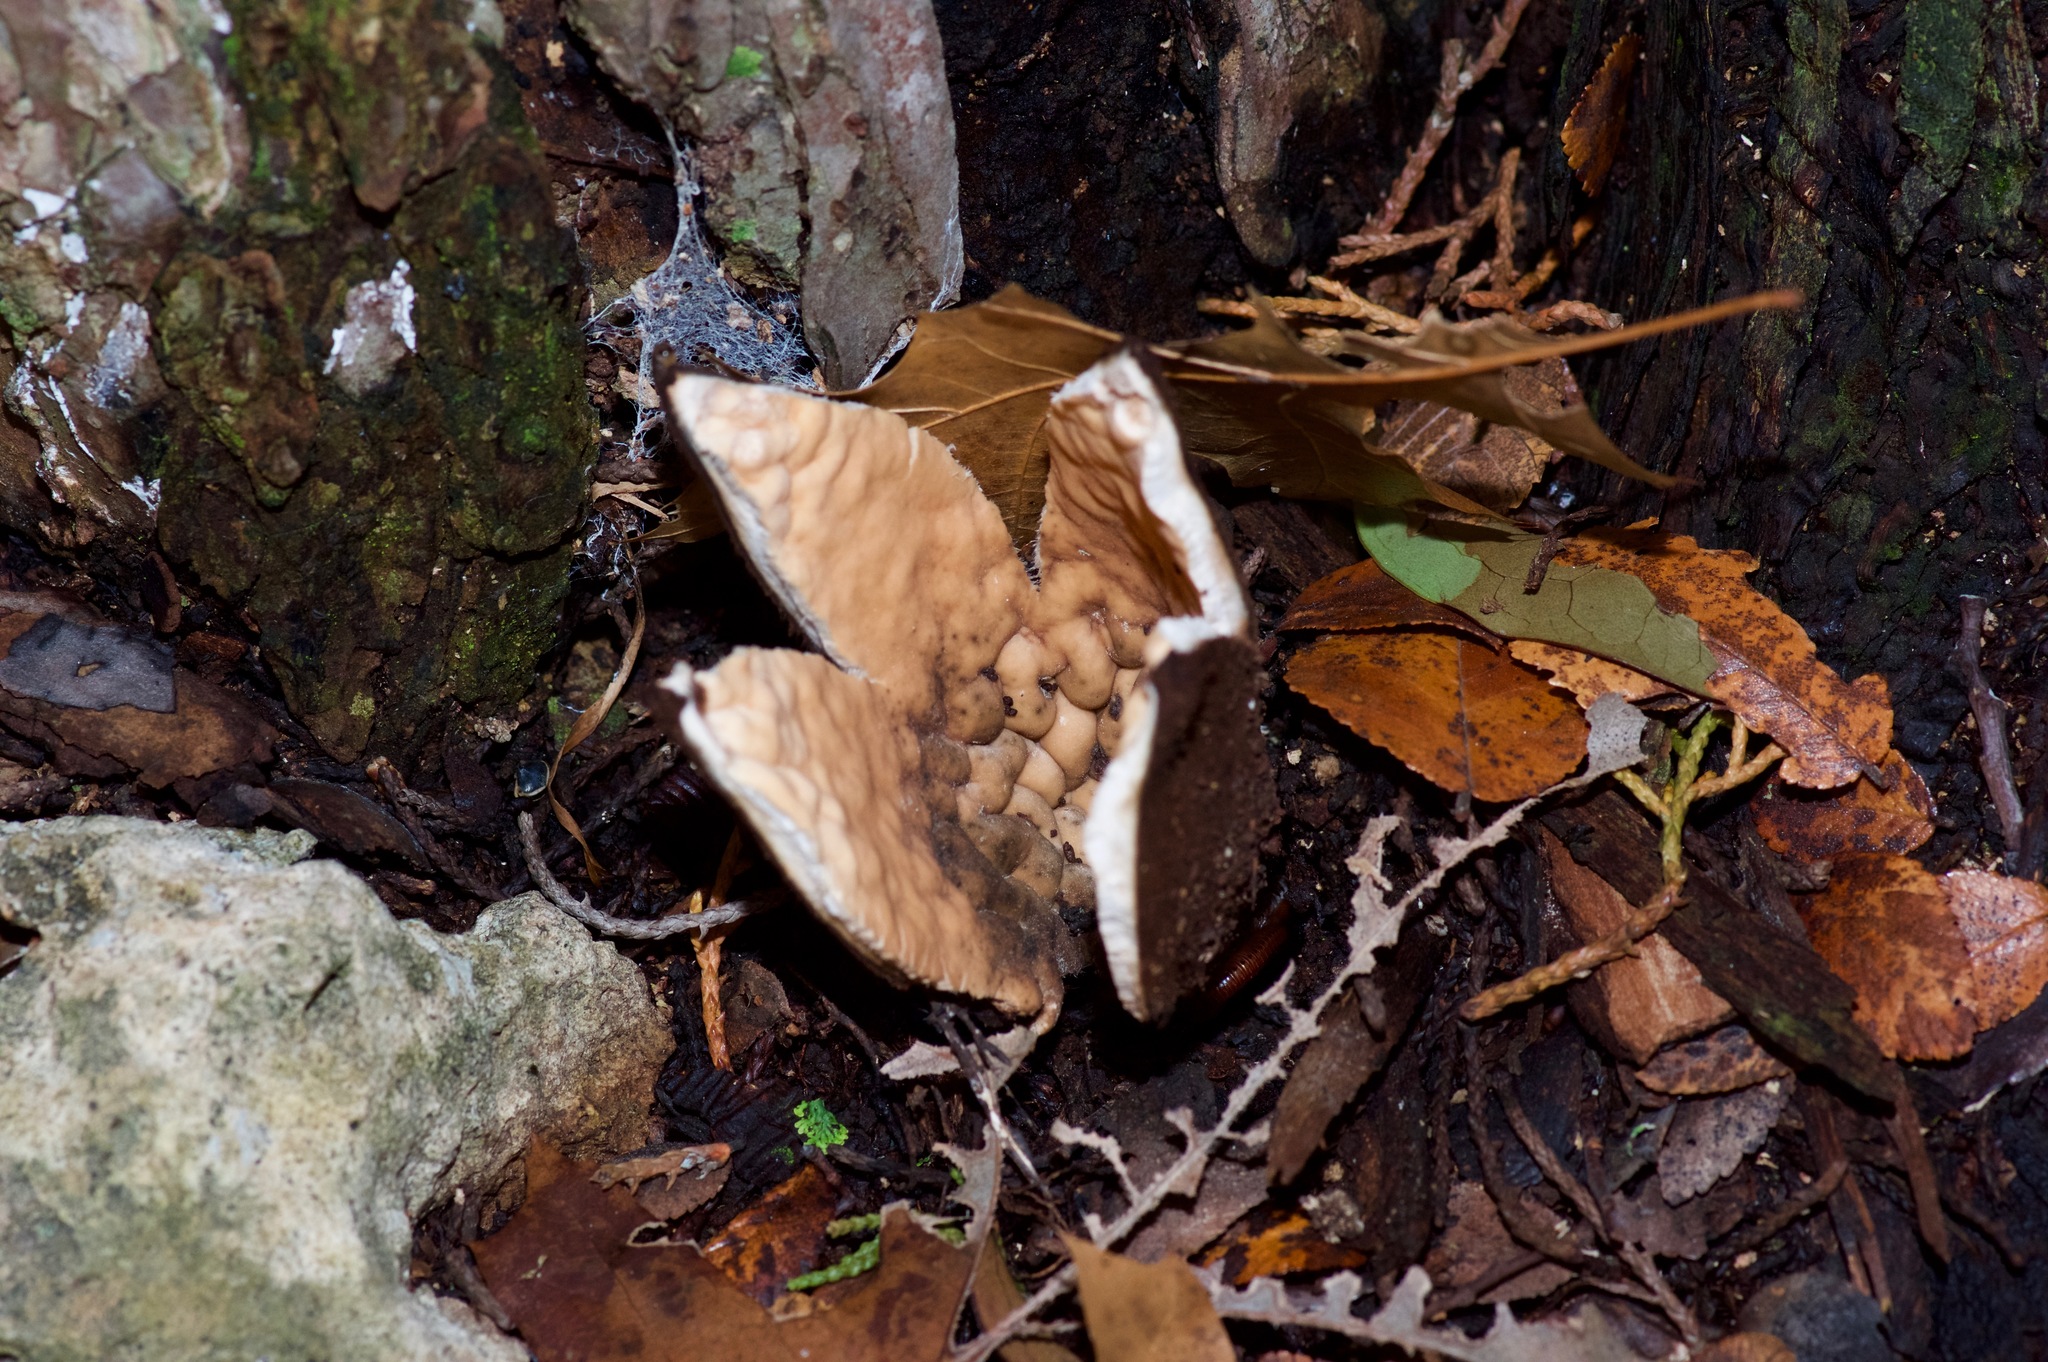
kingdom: Fungi
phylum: Ascomycota
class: Pezizomycetes
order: Pezizales
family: Chorioactidaceae
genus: Chorioactis
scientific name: Chorioactis geaster
